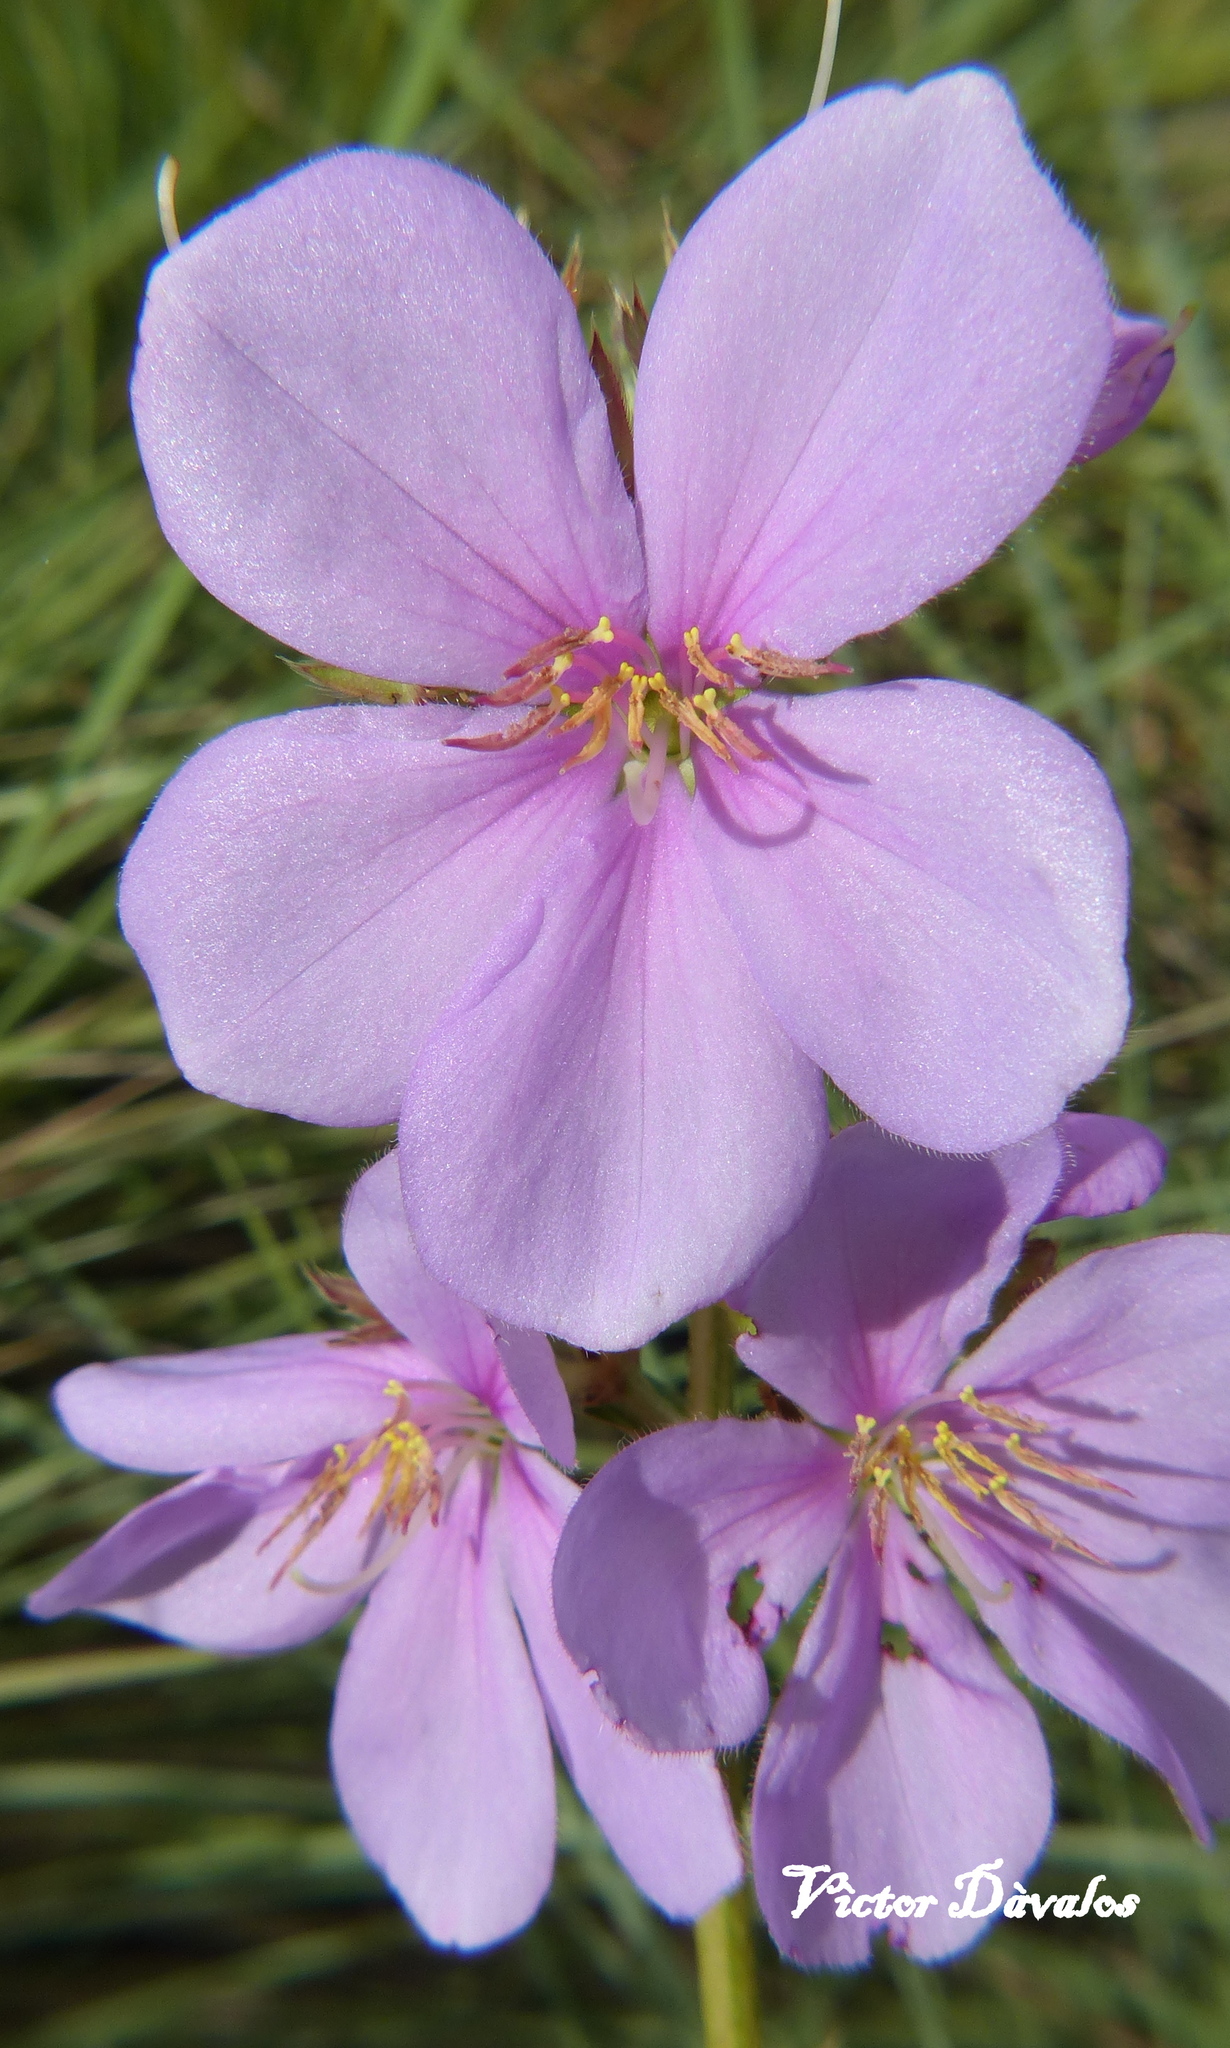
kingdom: Plantae
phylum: Tracheophyta
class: Magnoliopsida
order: Myrtales
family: Melastomataceae
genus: Chaetogastra
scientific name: Chaetogastra gracilis
